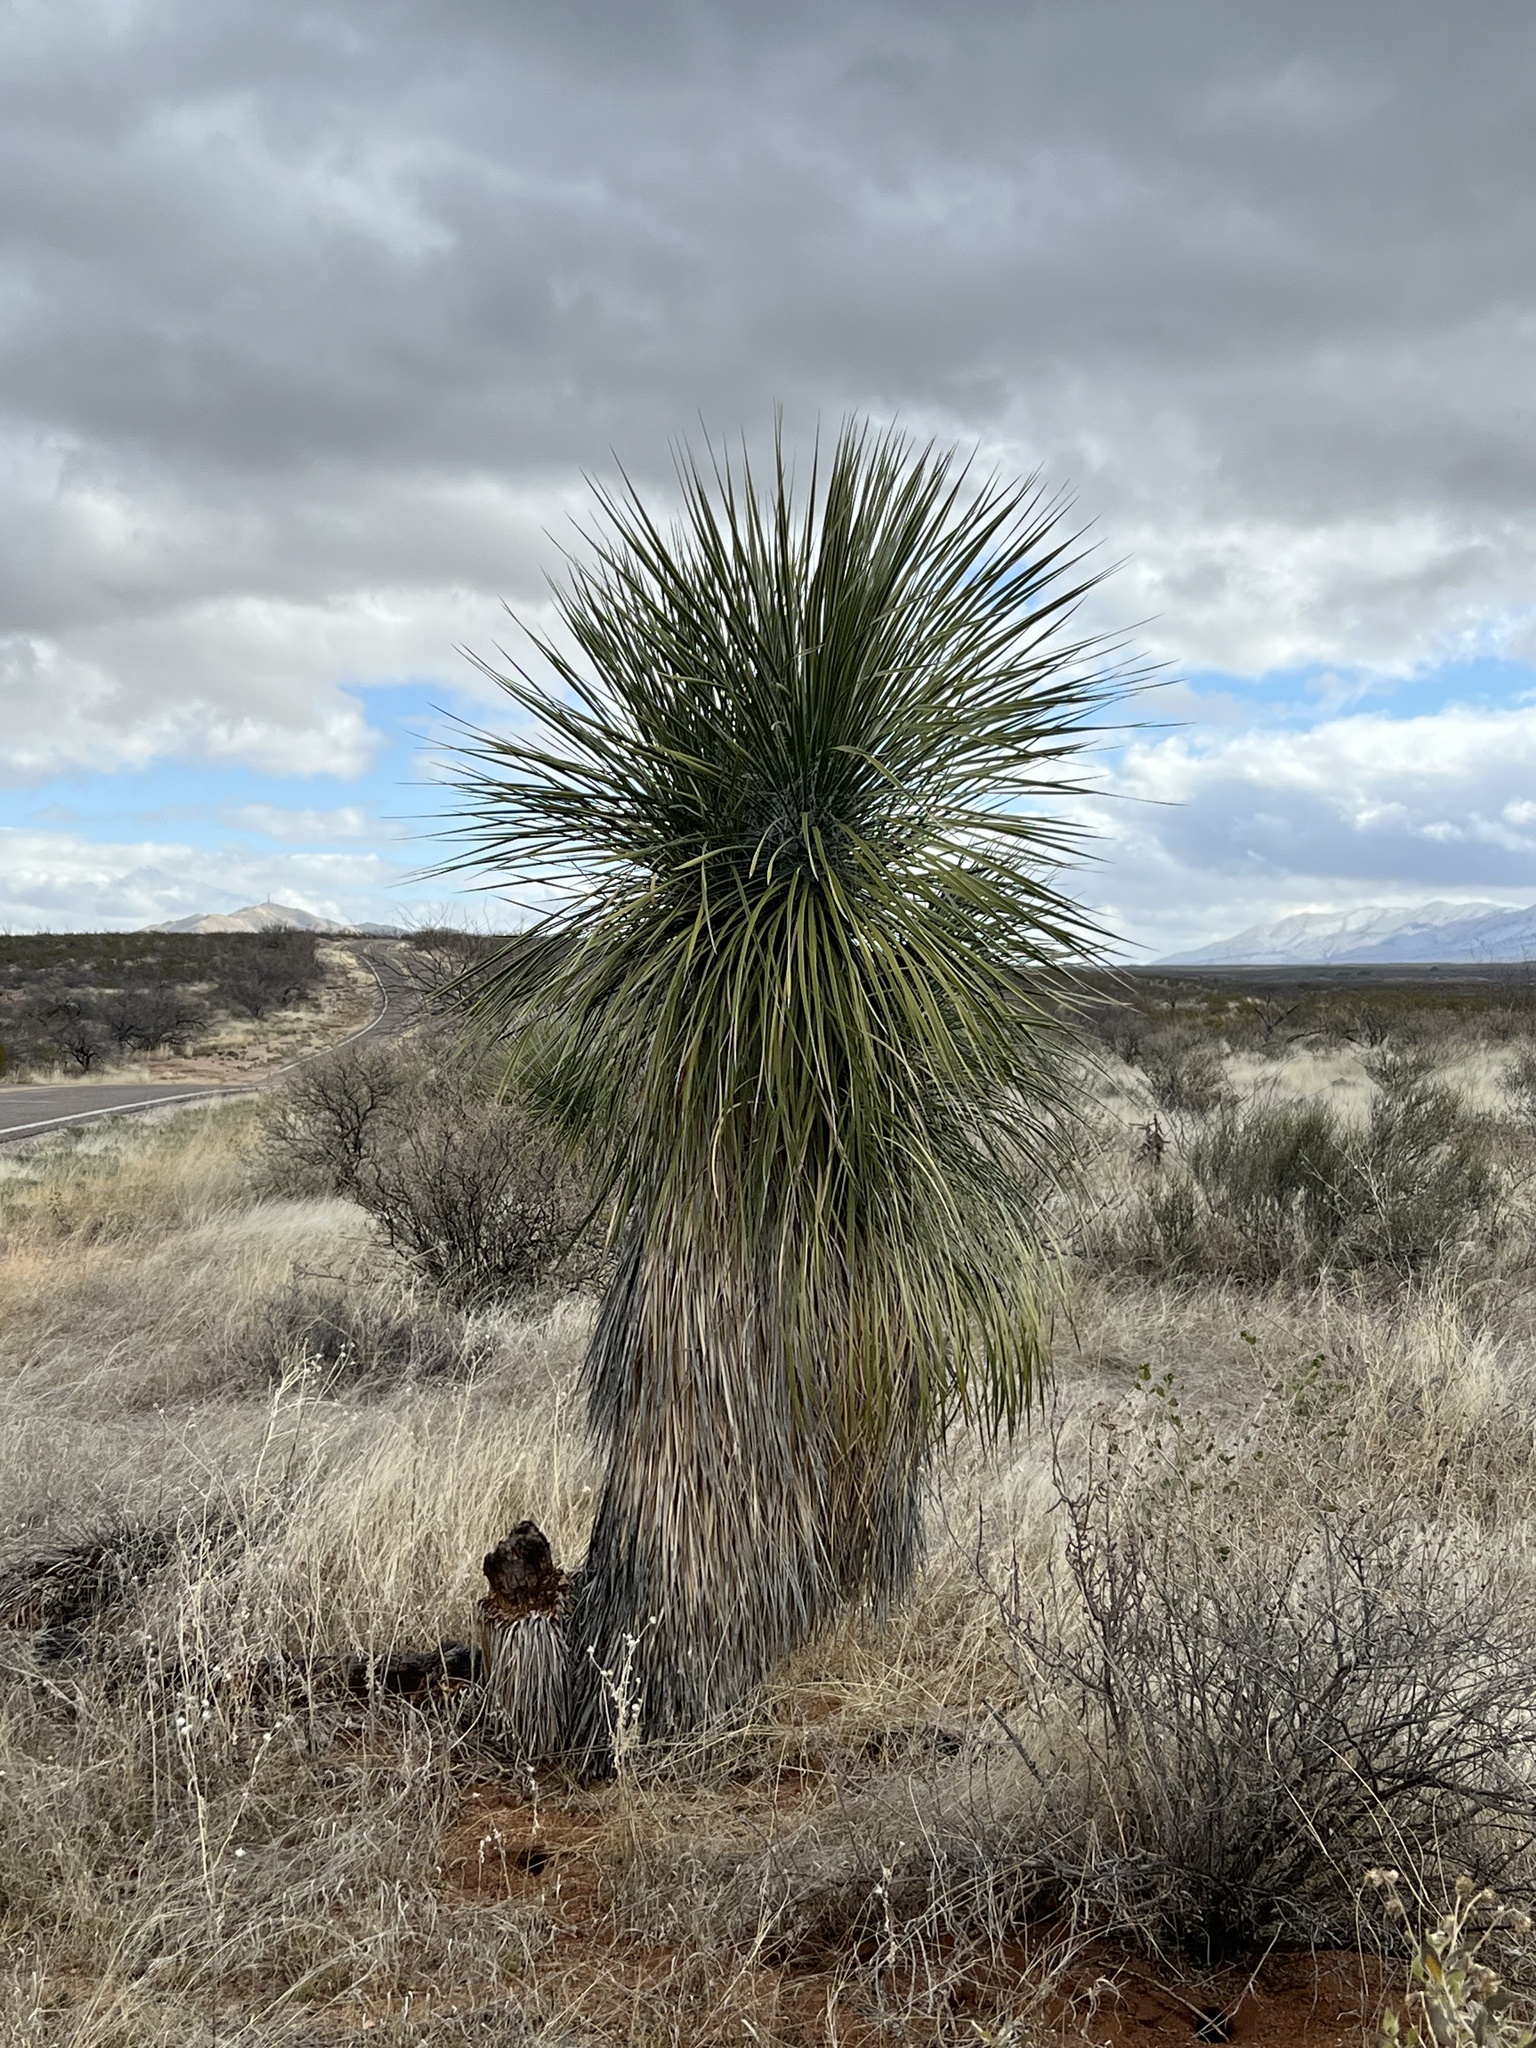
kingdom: Plantae
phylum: Tracheophyta
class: Liliopsida
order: Asparagales
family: Asparagaceae
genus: Yucca
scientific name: Yucca elata
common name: Palmella
